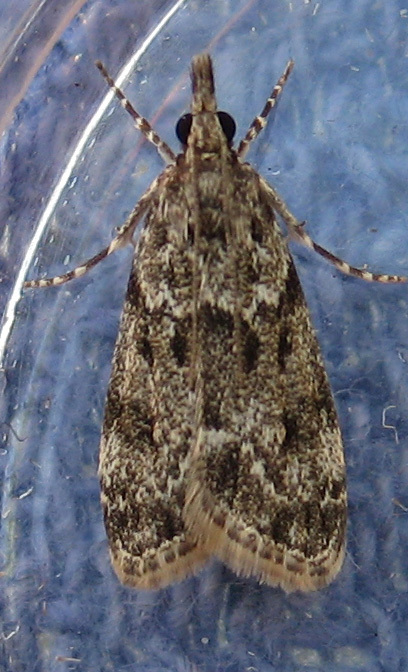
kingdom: Animalia
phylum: Arthropoda
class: Insecta
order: Lepidoptera
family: Crambidae
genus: Eudonia
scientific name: Eudonia heterosalis
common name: Mcdunnough's eudonia
